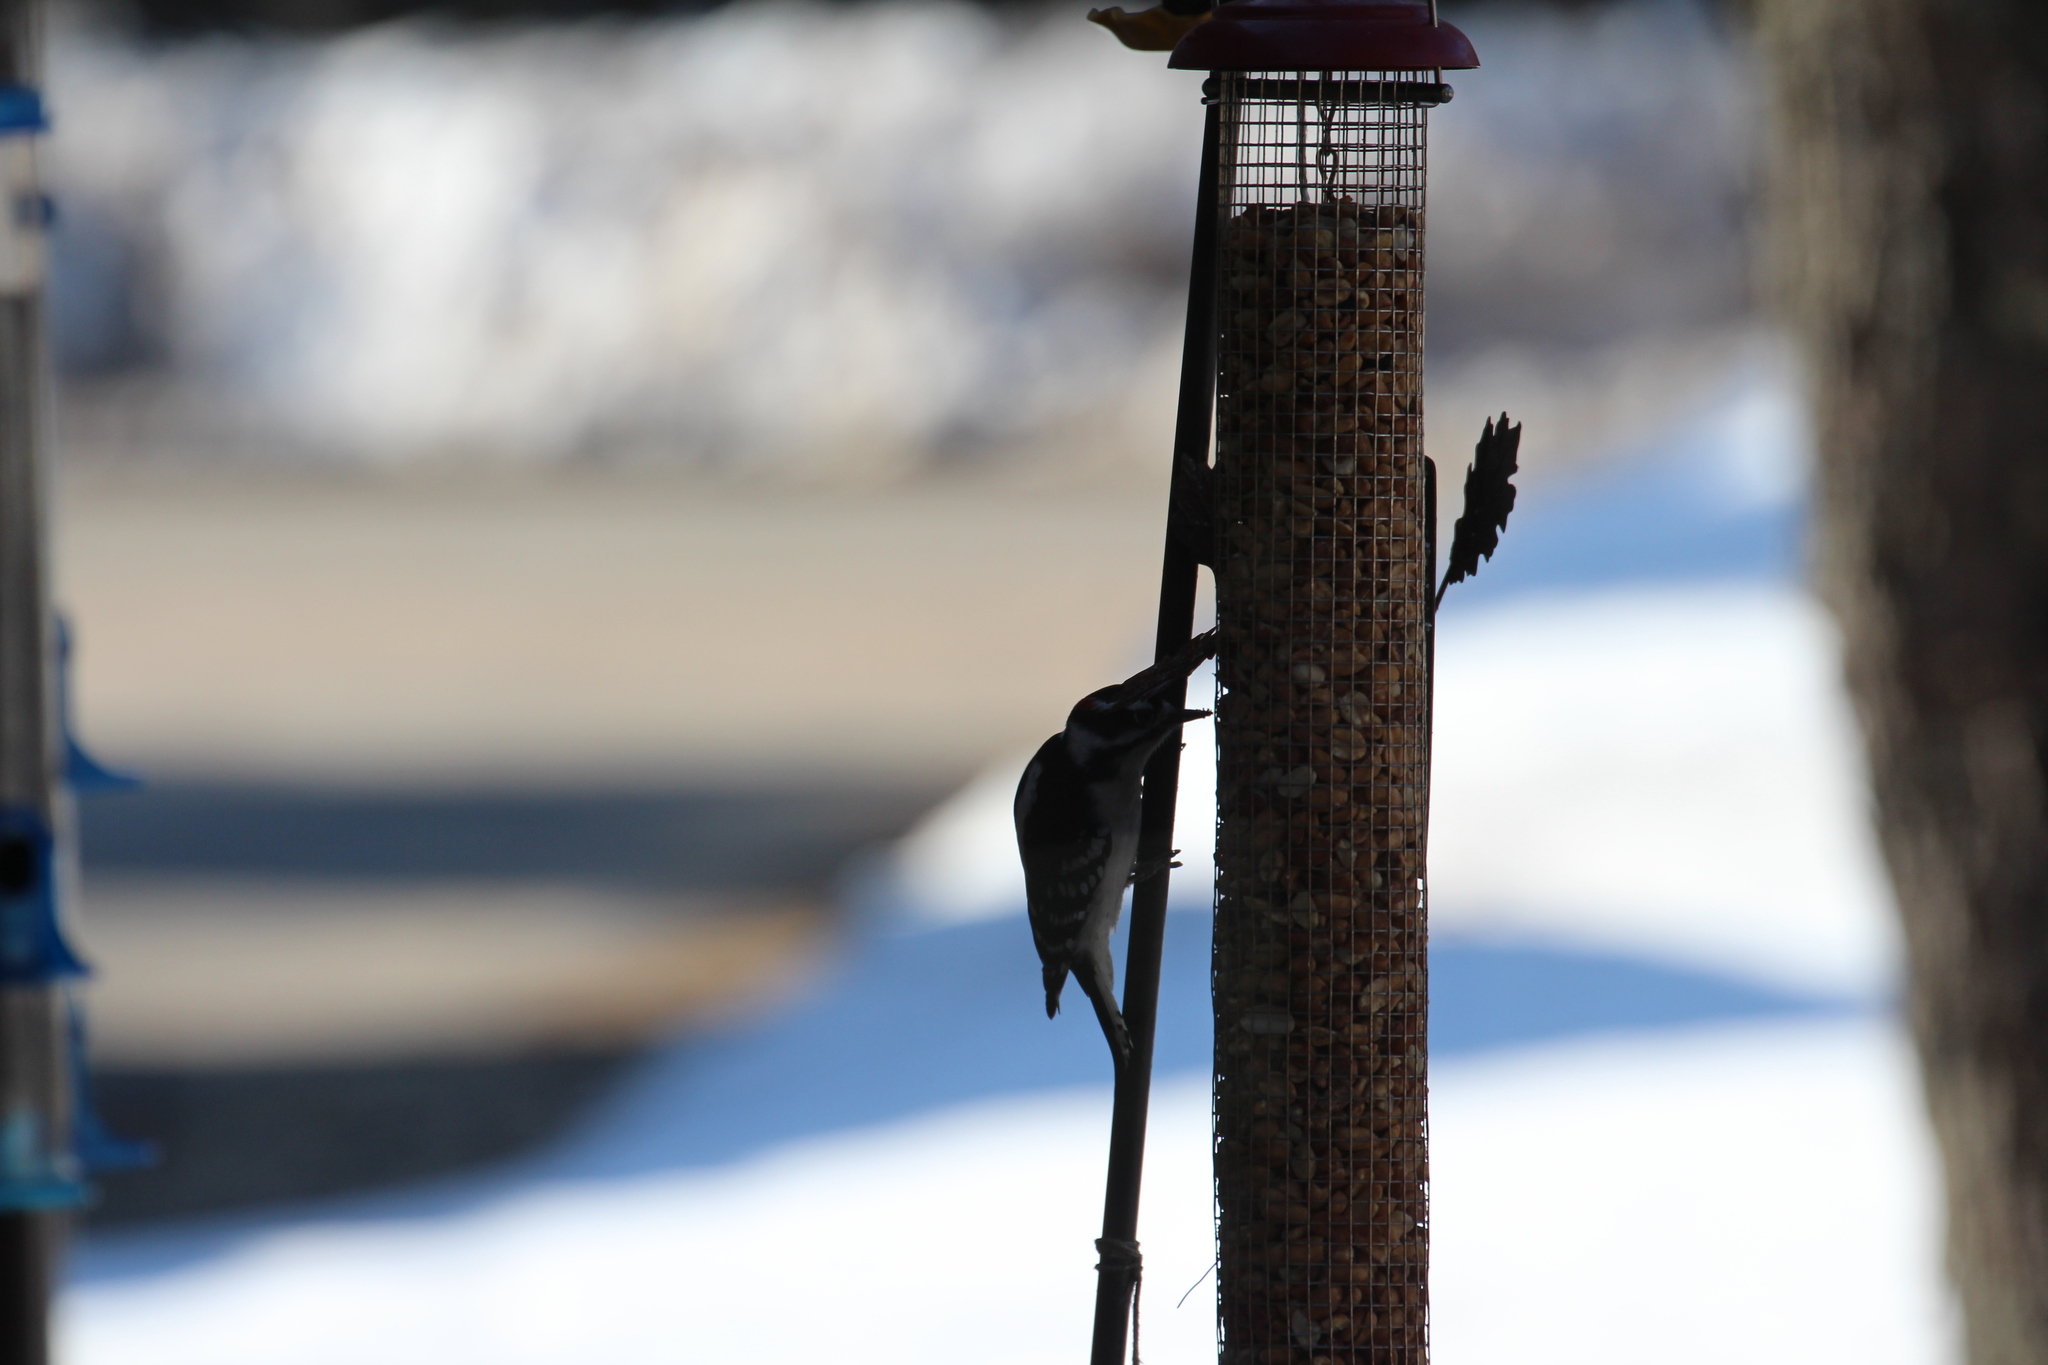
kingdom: Animalia
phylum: Chordata
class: Aves
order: Piciformes
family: Picidae
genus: Dryobates
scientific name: Dryobates pubescens
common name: Downy woodpecker
